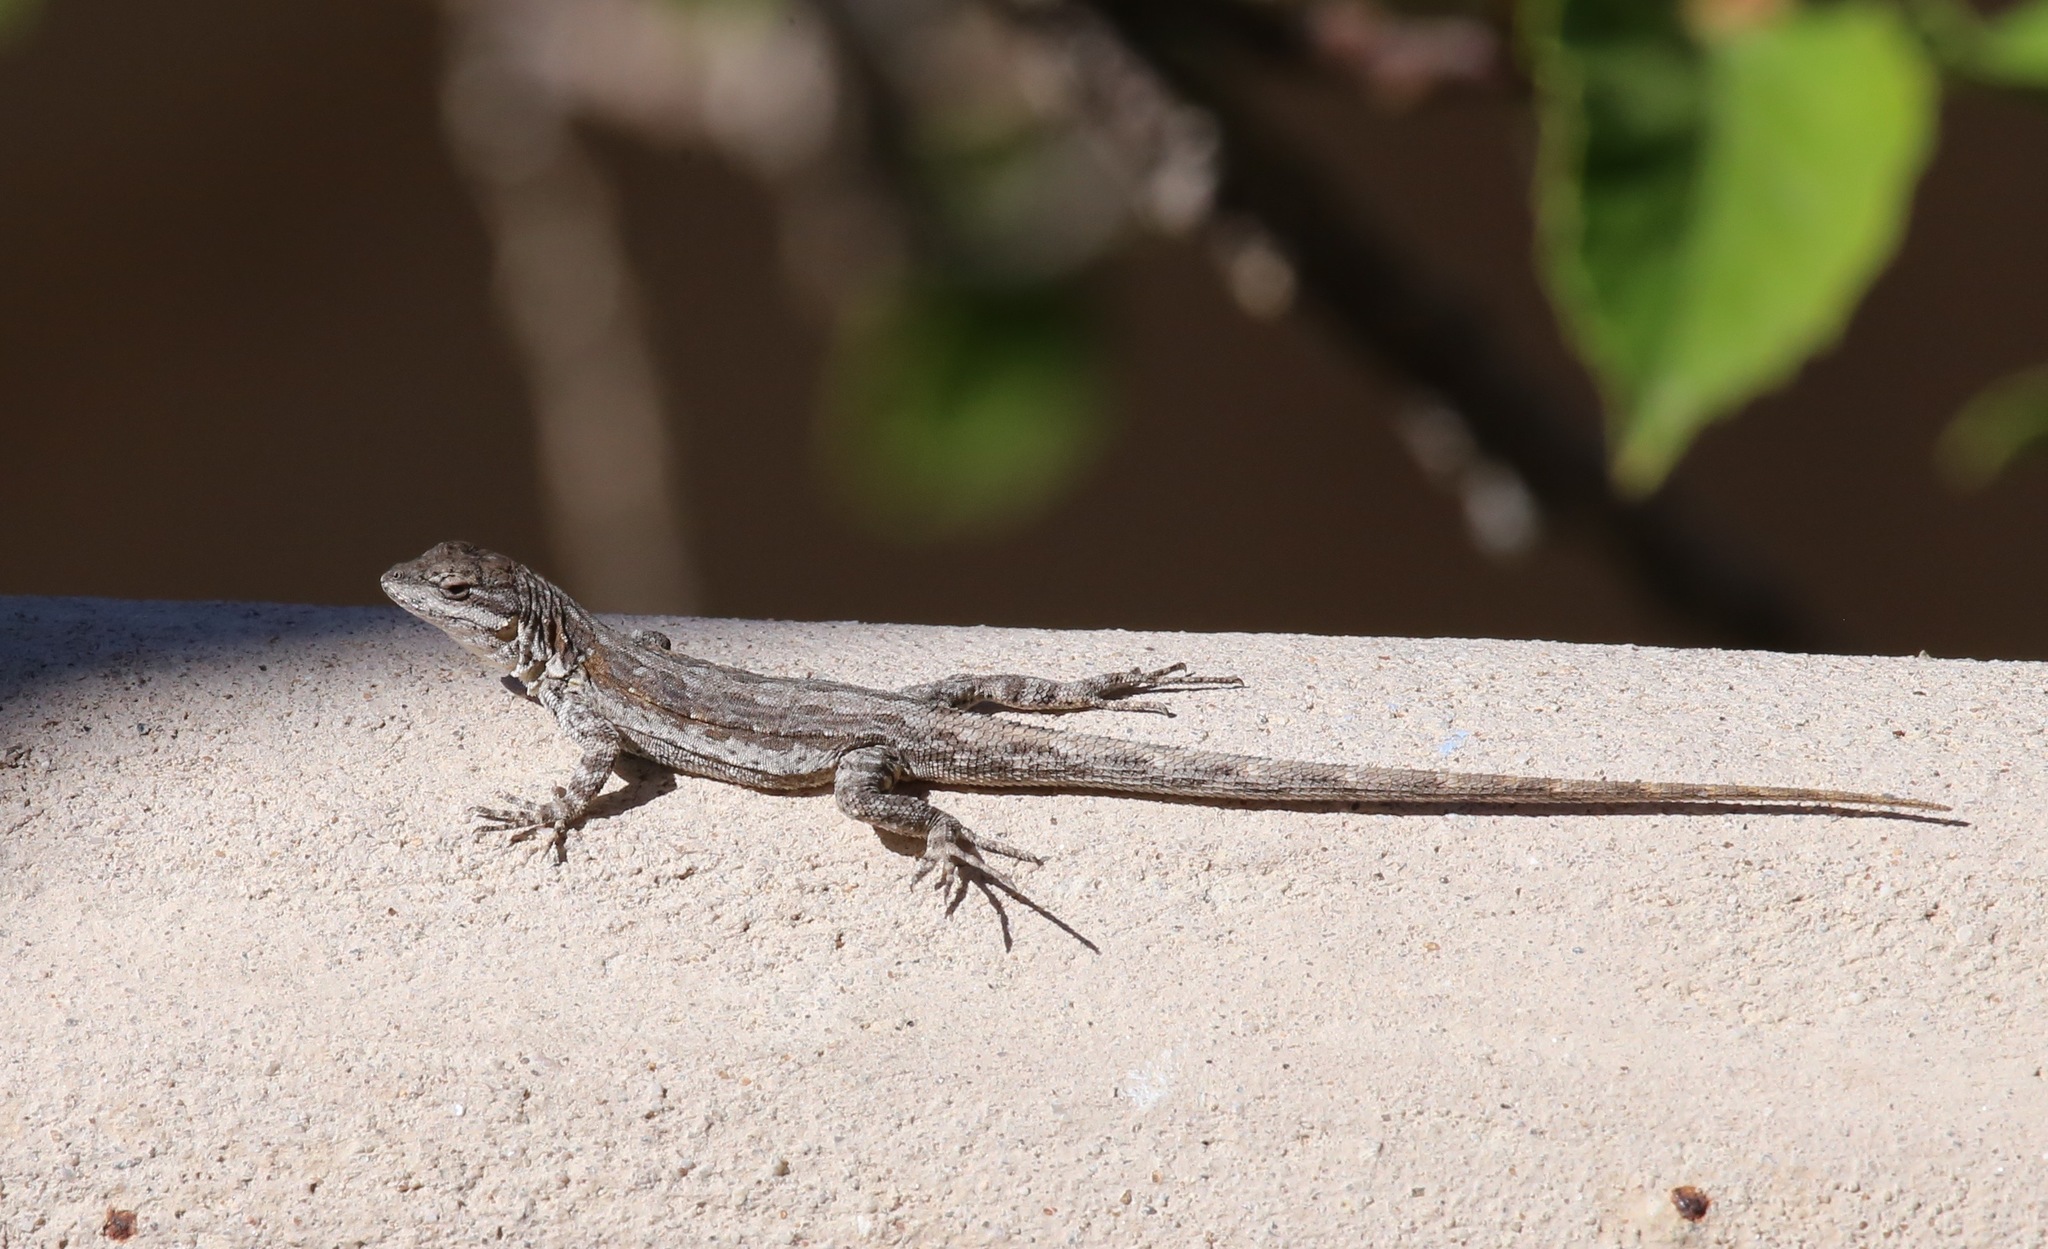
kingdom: Animalia
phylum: Chordata
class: Squamata
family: Phrynosomatidae
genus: Urosaurus
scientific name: Urosaurus nigricauda
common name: Baja california brush lizard
